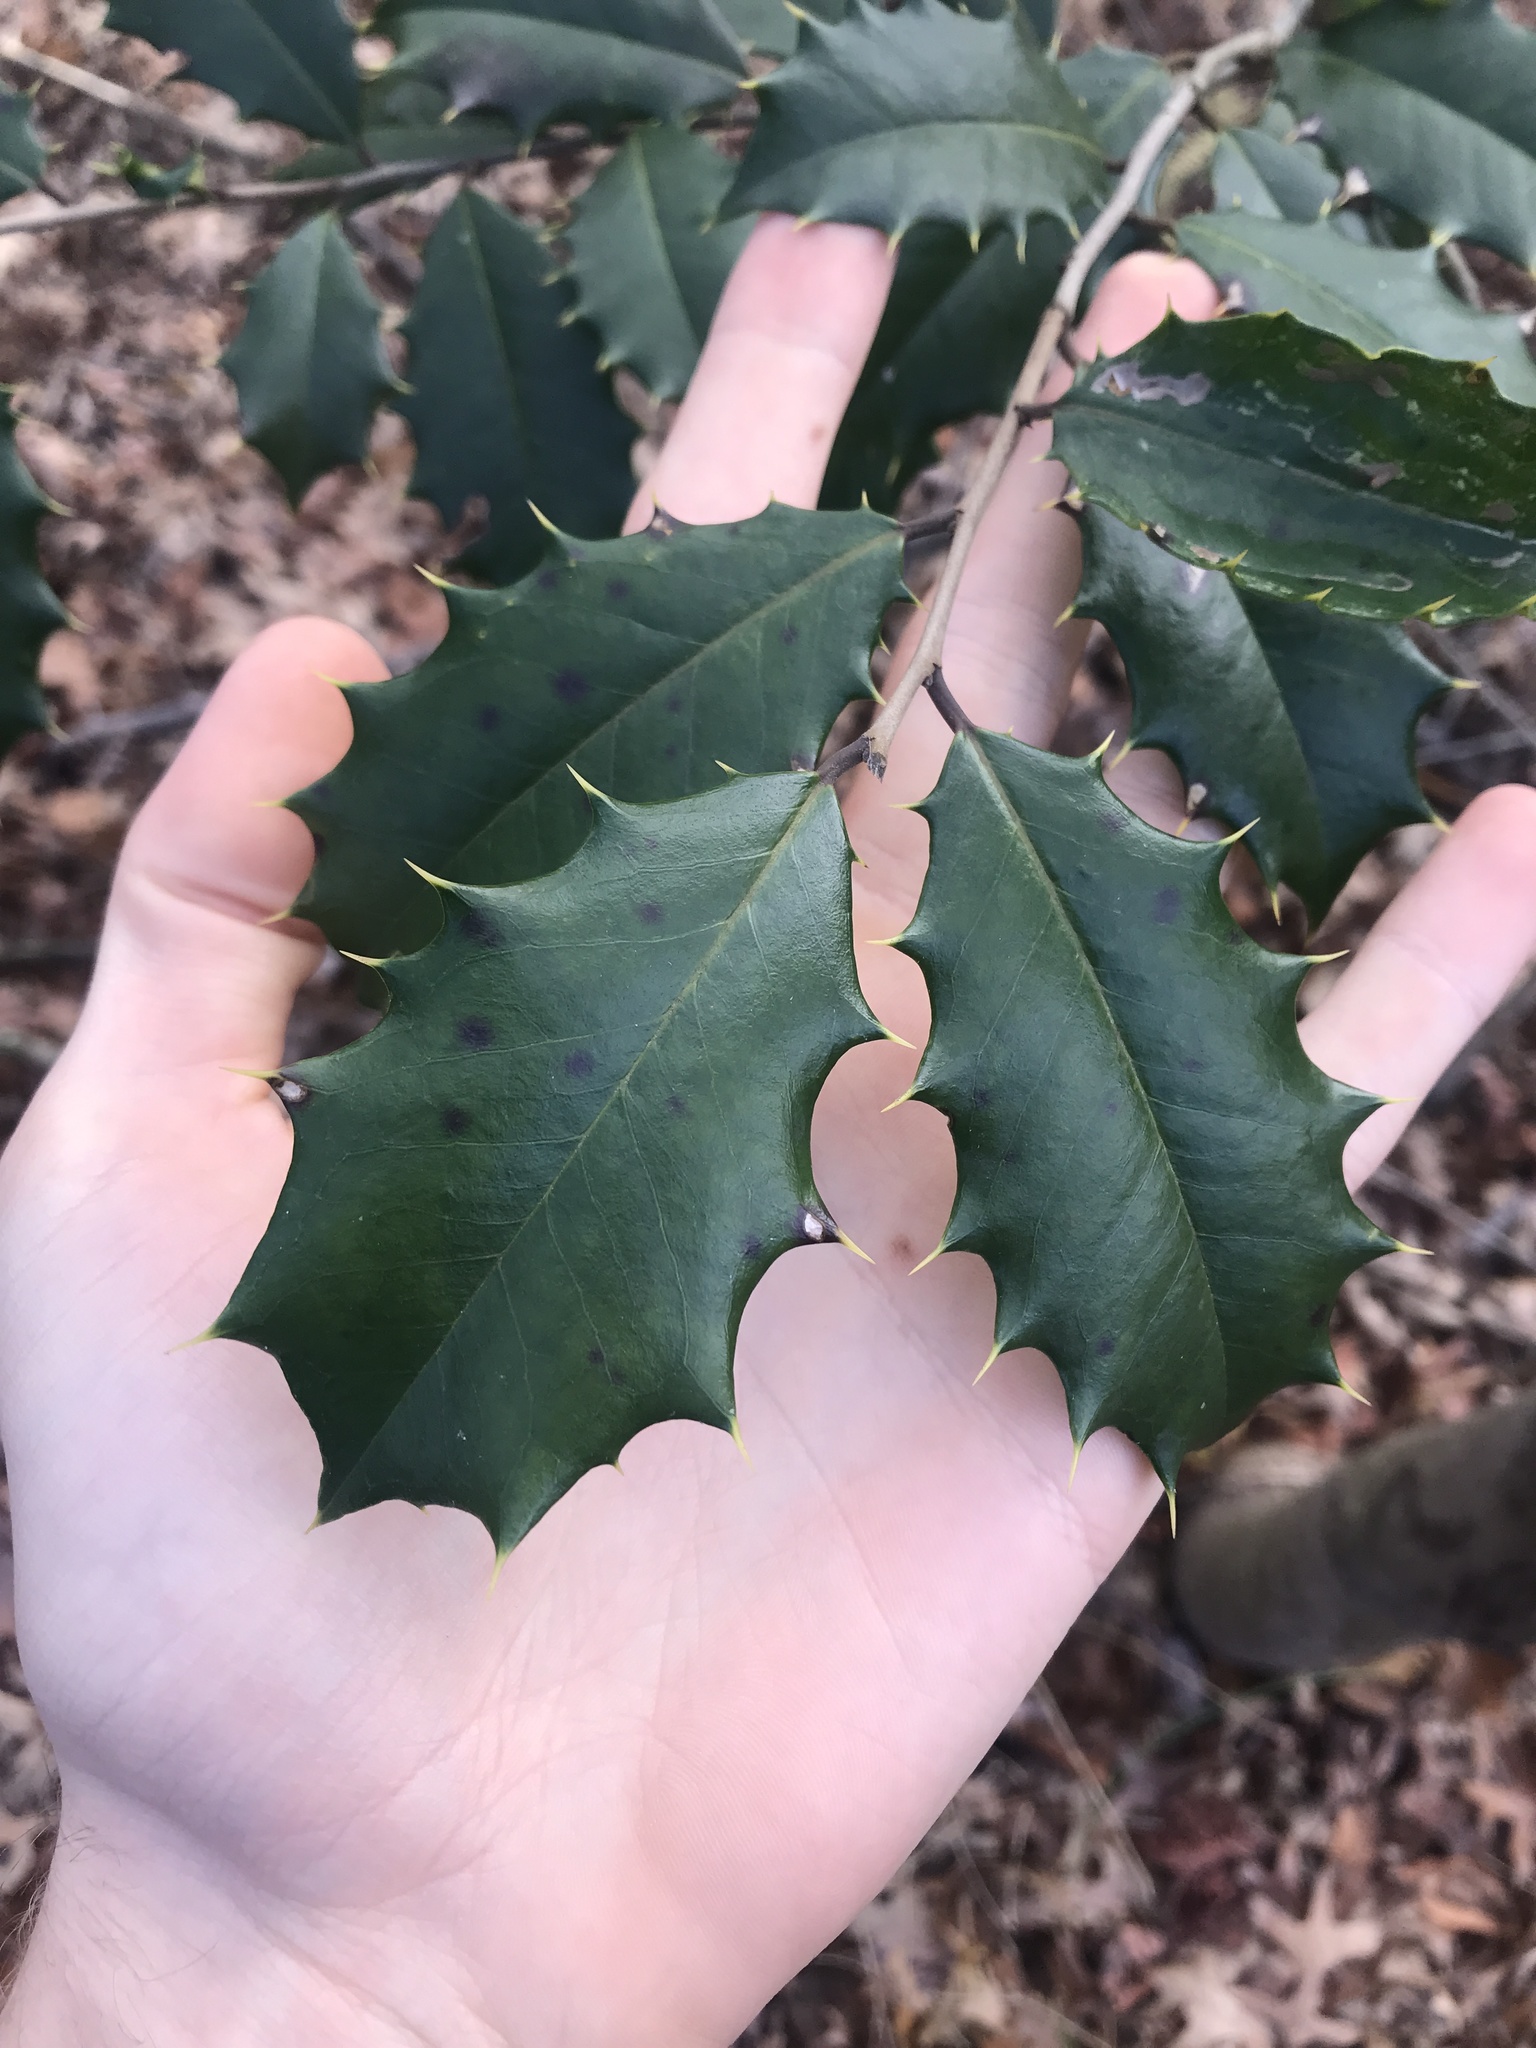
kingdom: Plantae
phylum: Tracheophyta
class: Magnoliopsida
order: Aquifoliales
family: Aquifoliaceae
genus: Ilex
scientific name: Ilex opaca
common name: American holly
